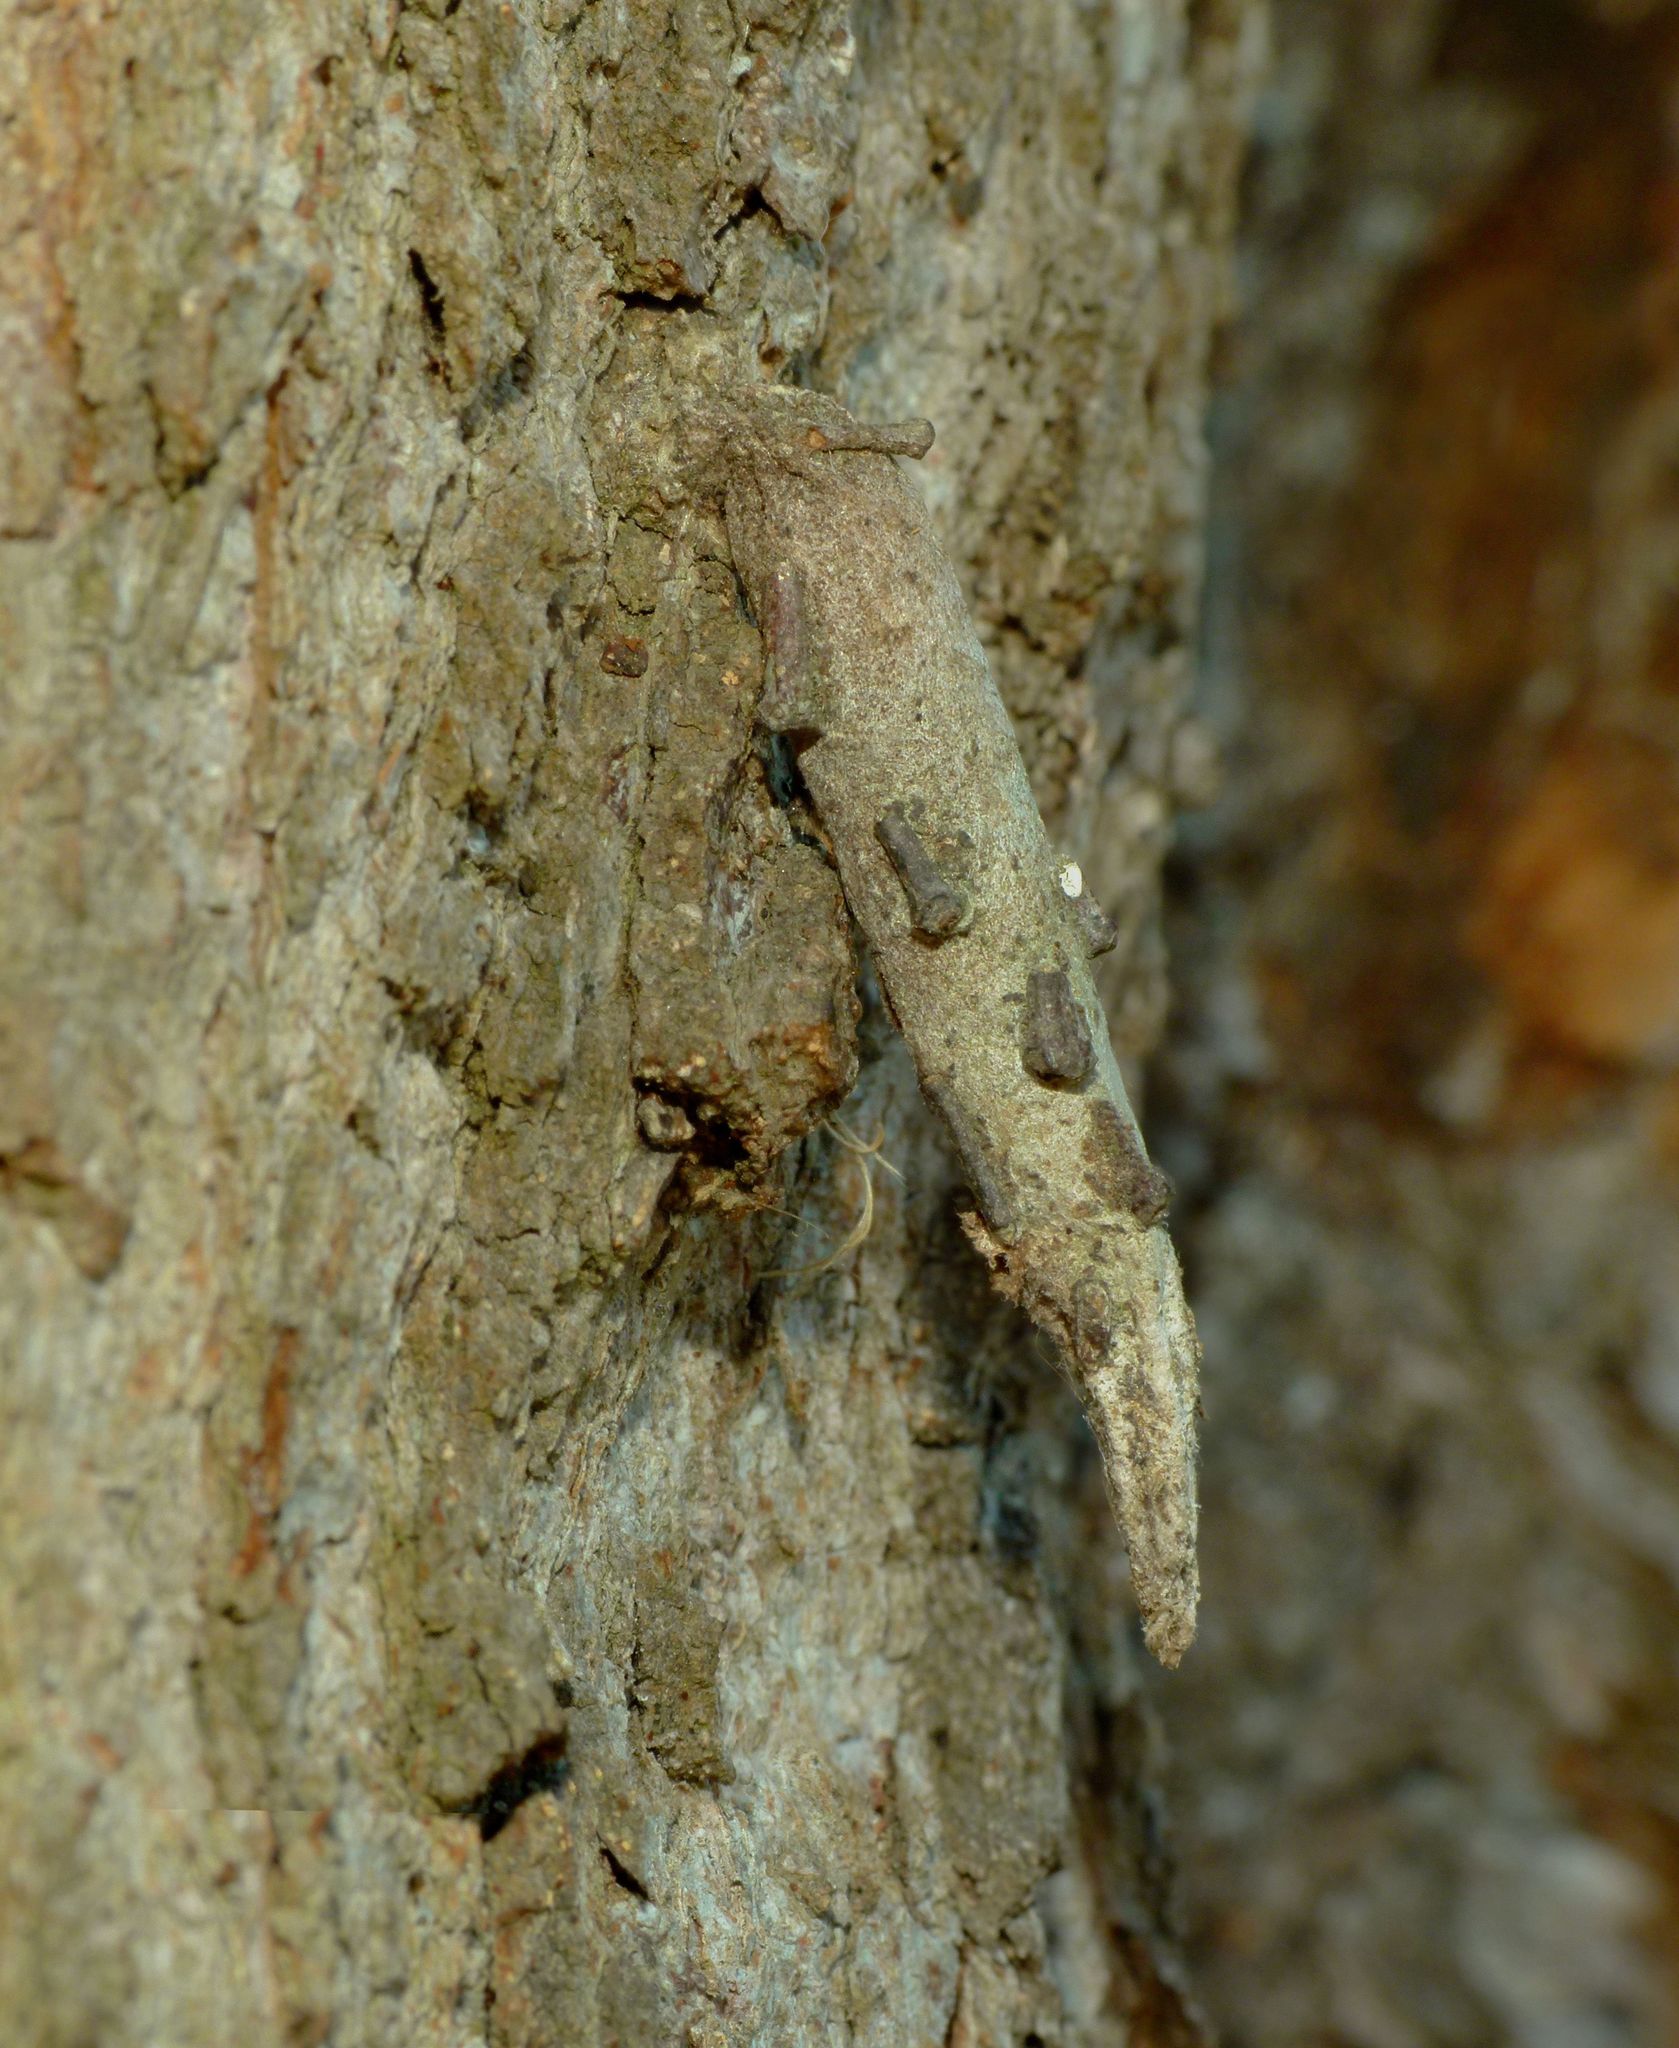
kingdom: Animalia
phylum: Arthropoda
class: Insecta
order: Lepidoptera
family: Psychidae
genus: Liothula
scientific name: Liothula omnivora
